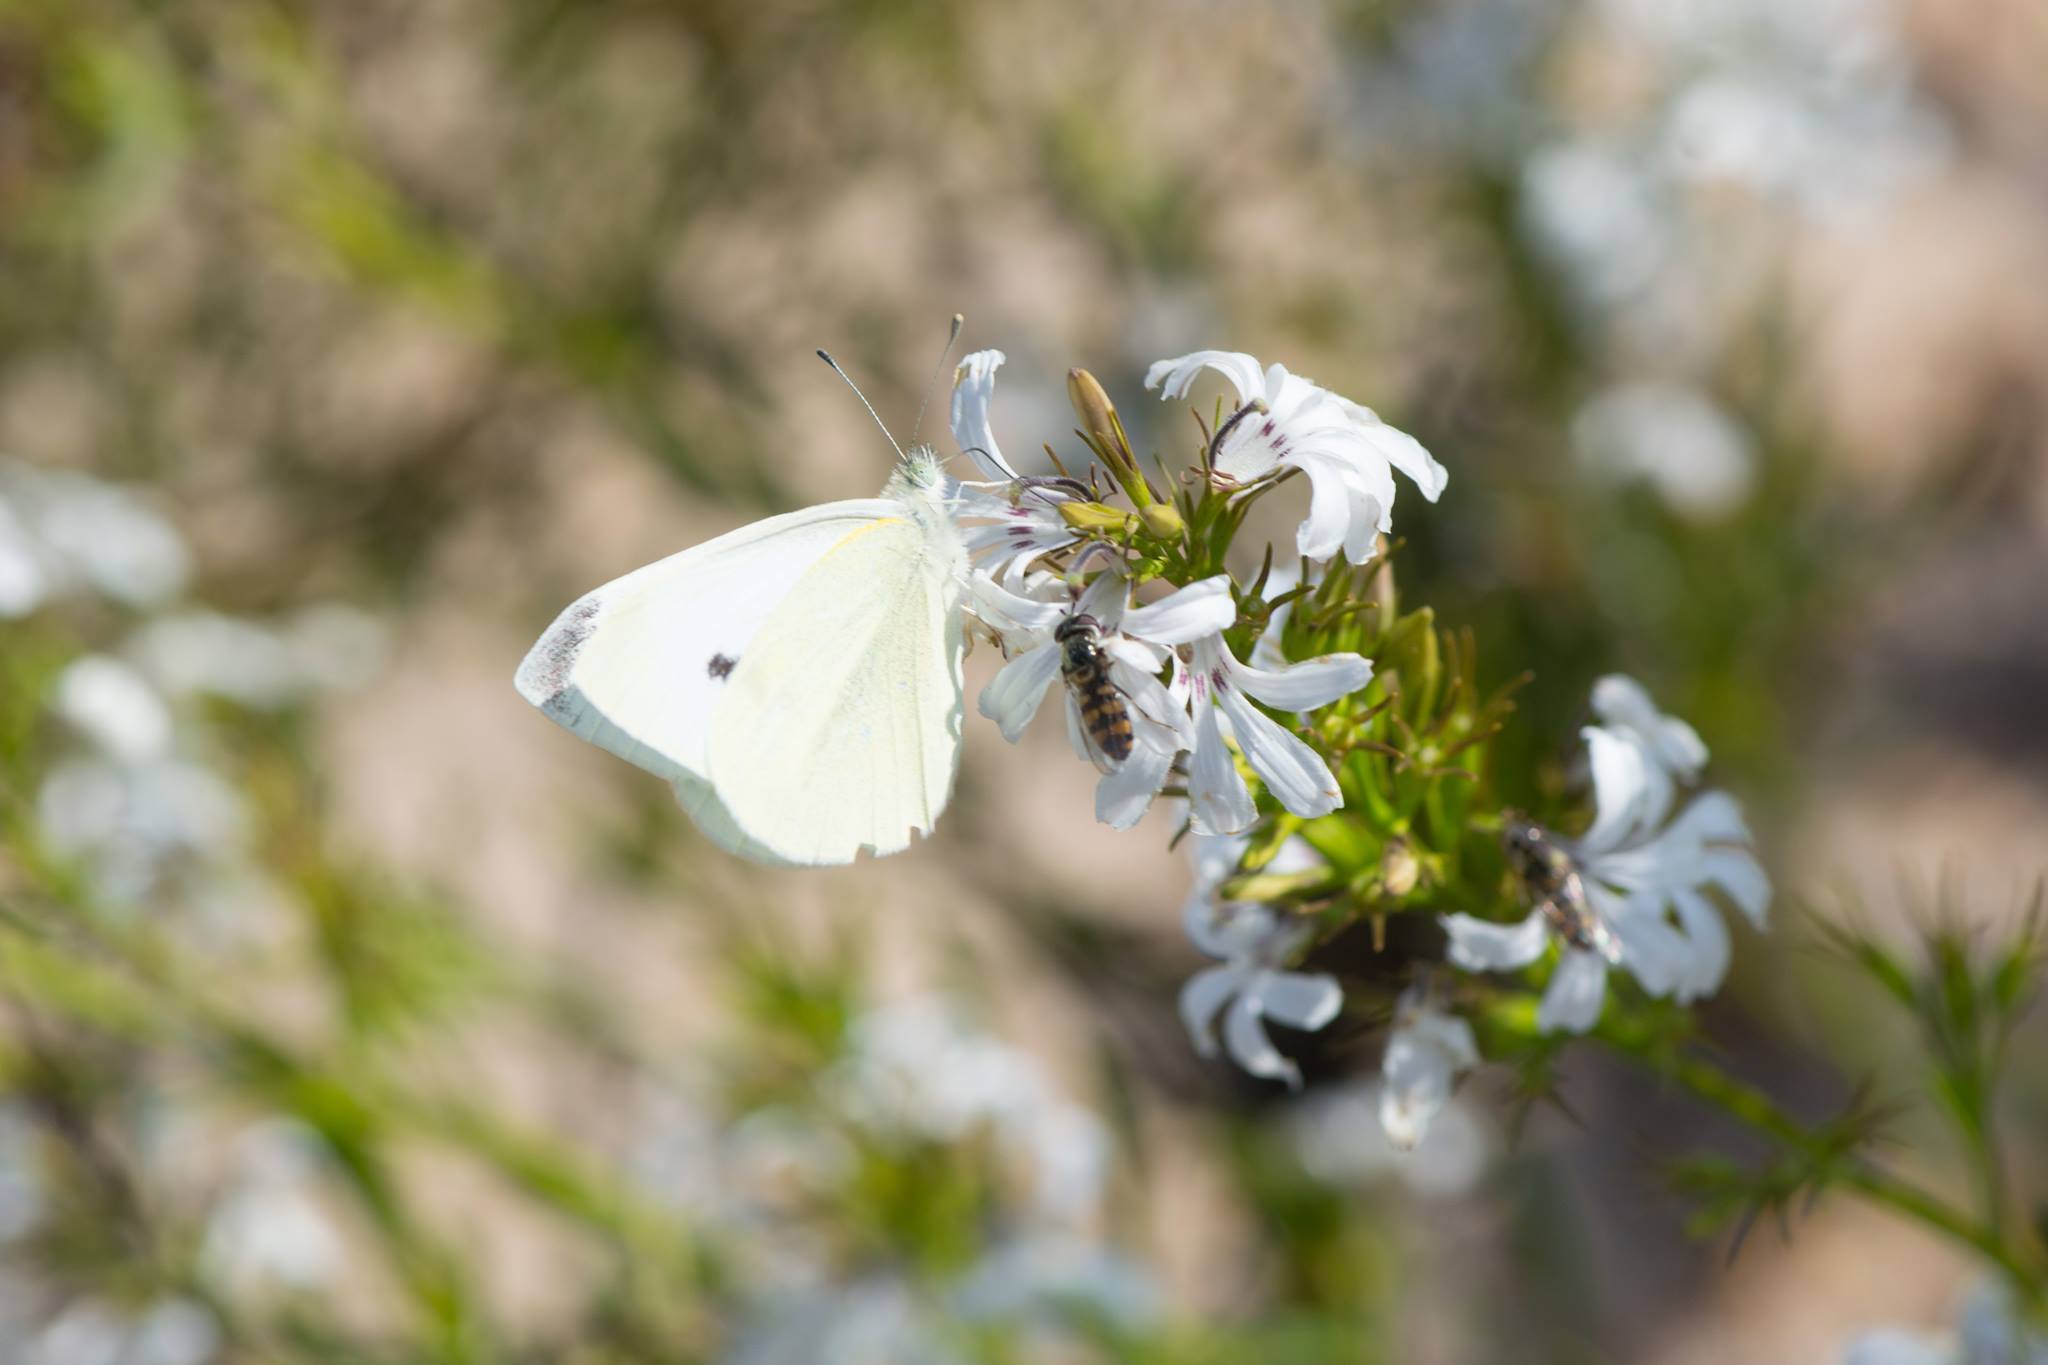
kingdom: Animalia
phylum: Arthropoda
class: Insecta
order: Lepidoptera
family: Pieridae
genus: Pieris
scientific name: Pieris rapae
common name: Small white
